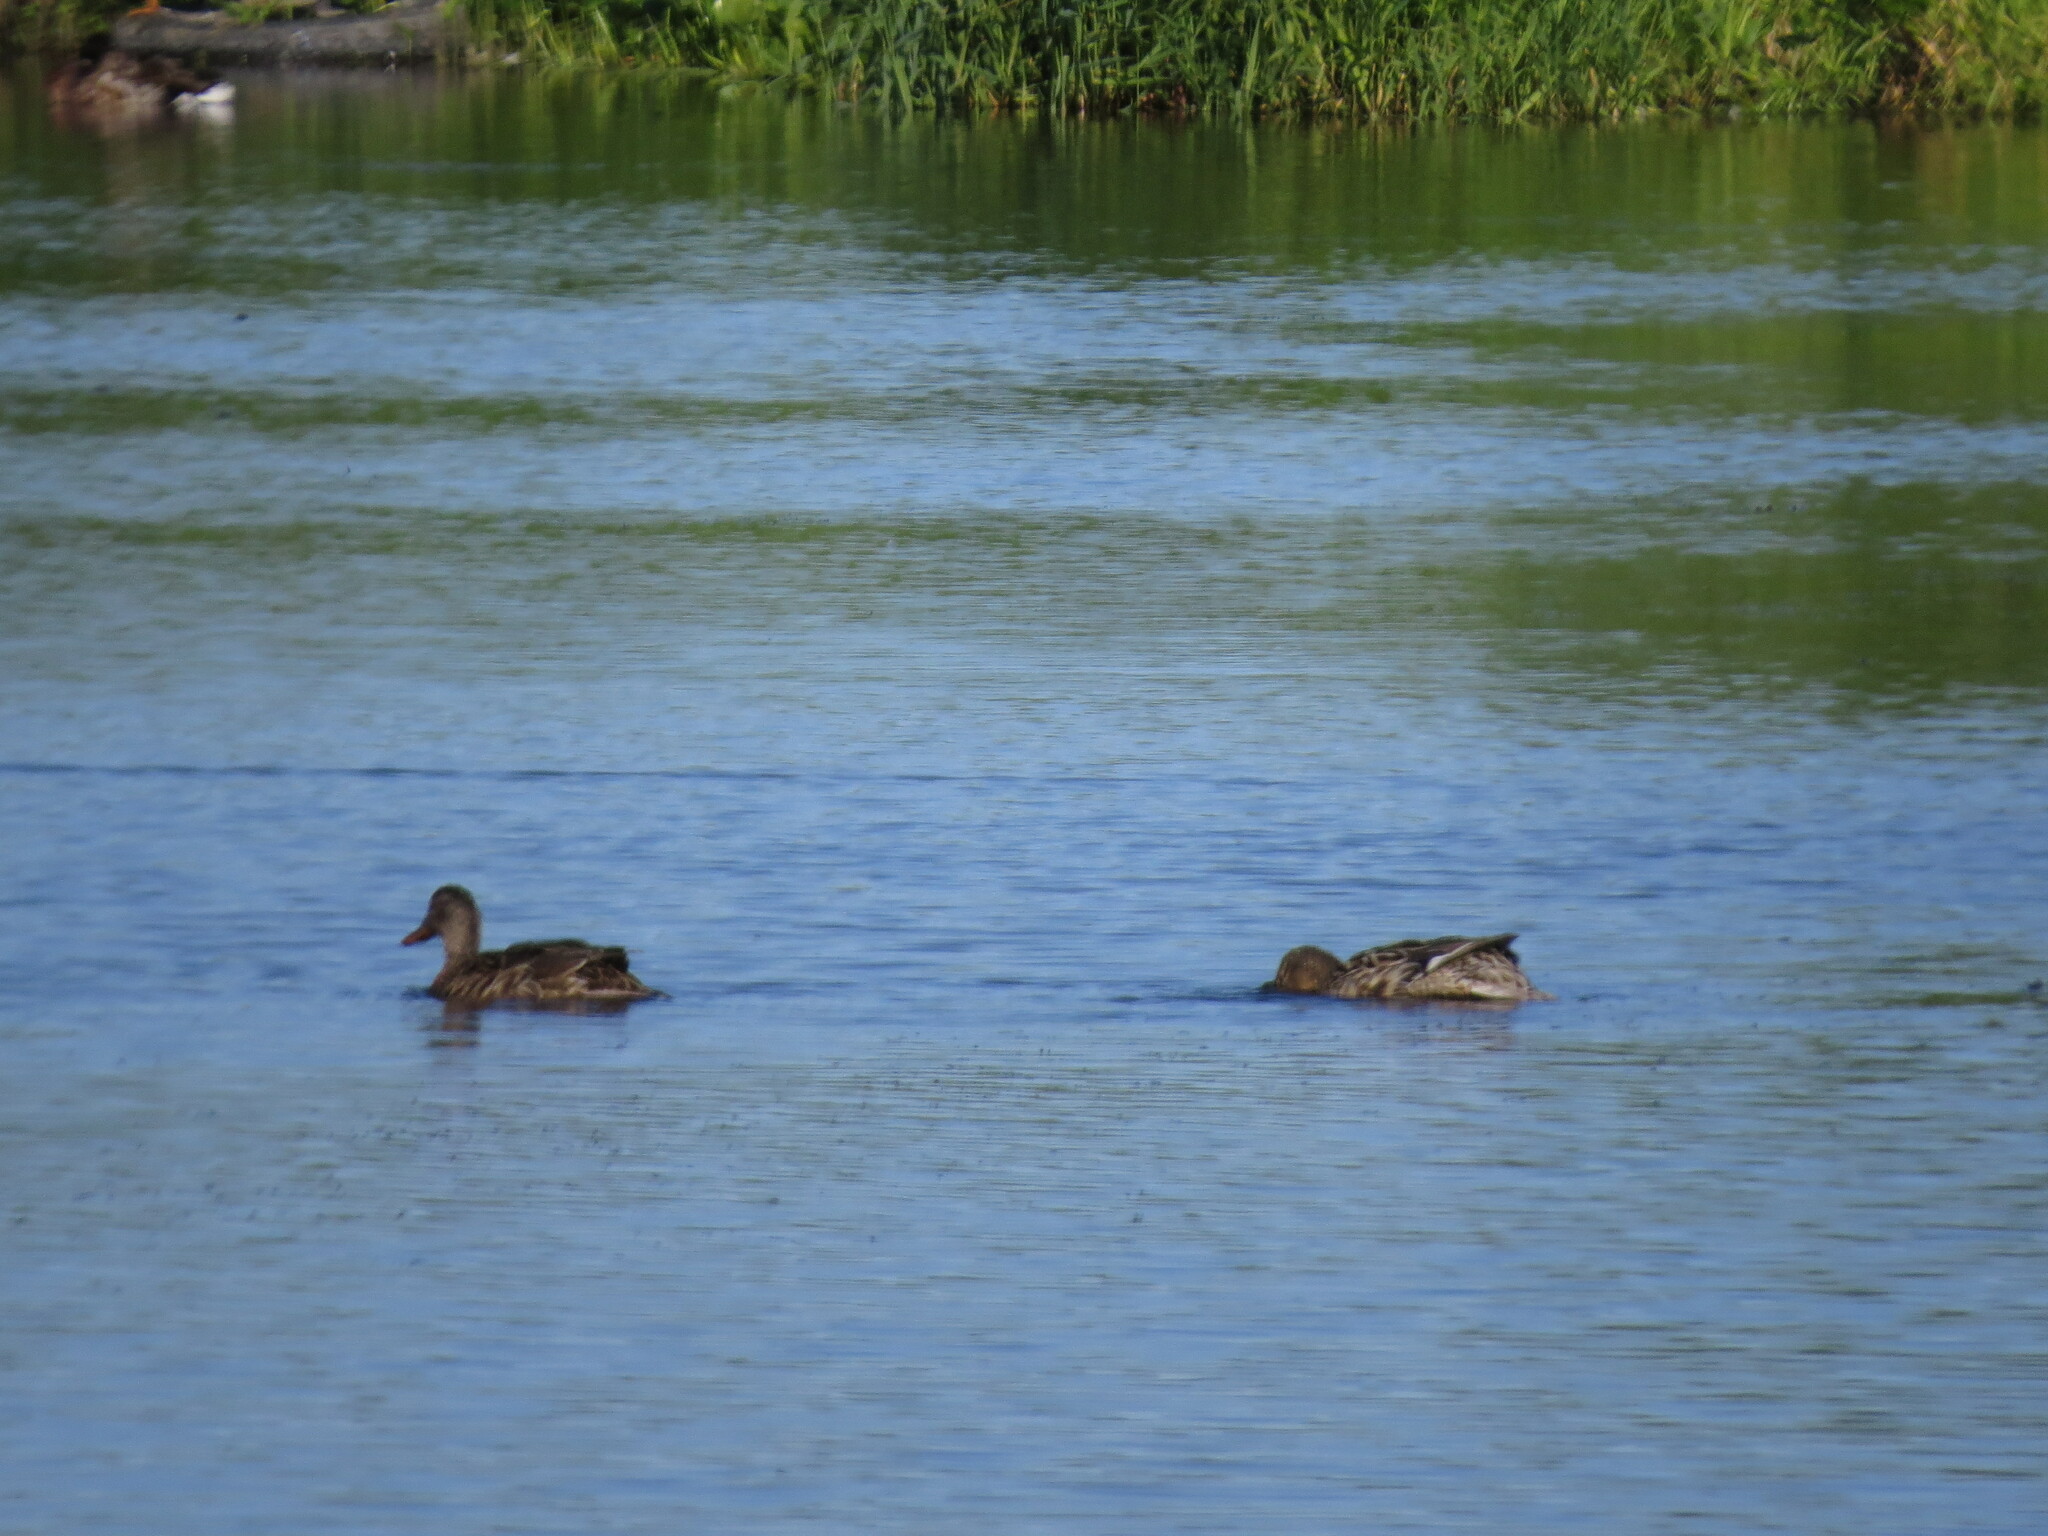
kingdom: Animalia
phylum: Chordata
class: Aves
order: Anseriformes
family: Anatidae
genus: Mareca
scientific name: Mareca penelope
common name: Eurasian wigeon
